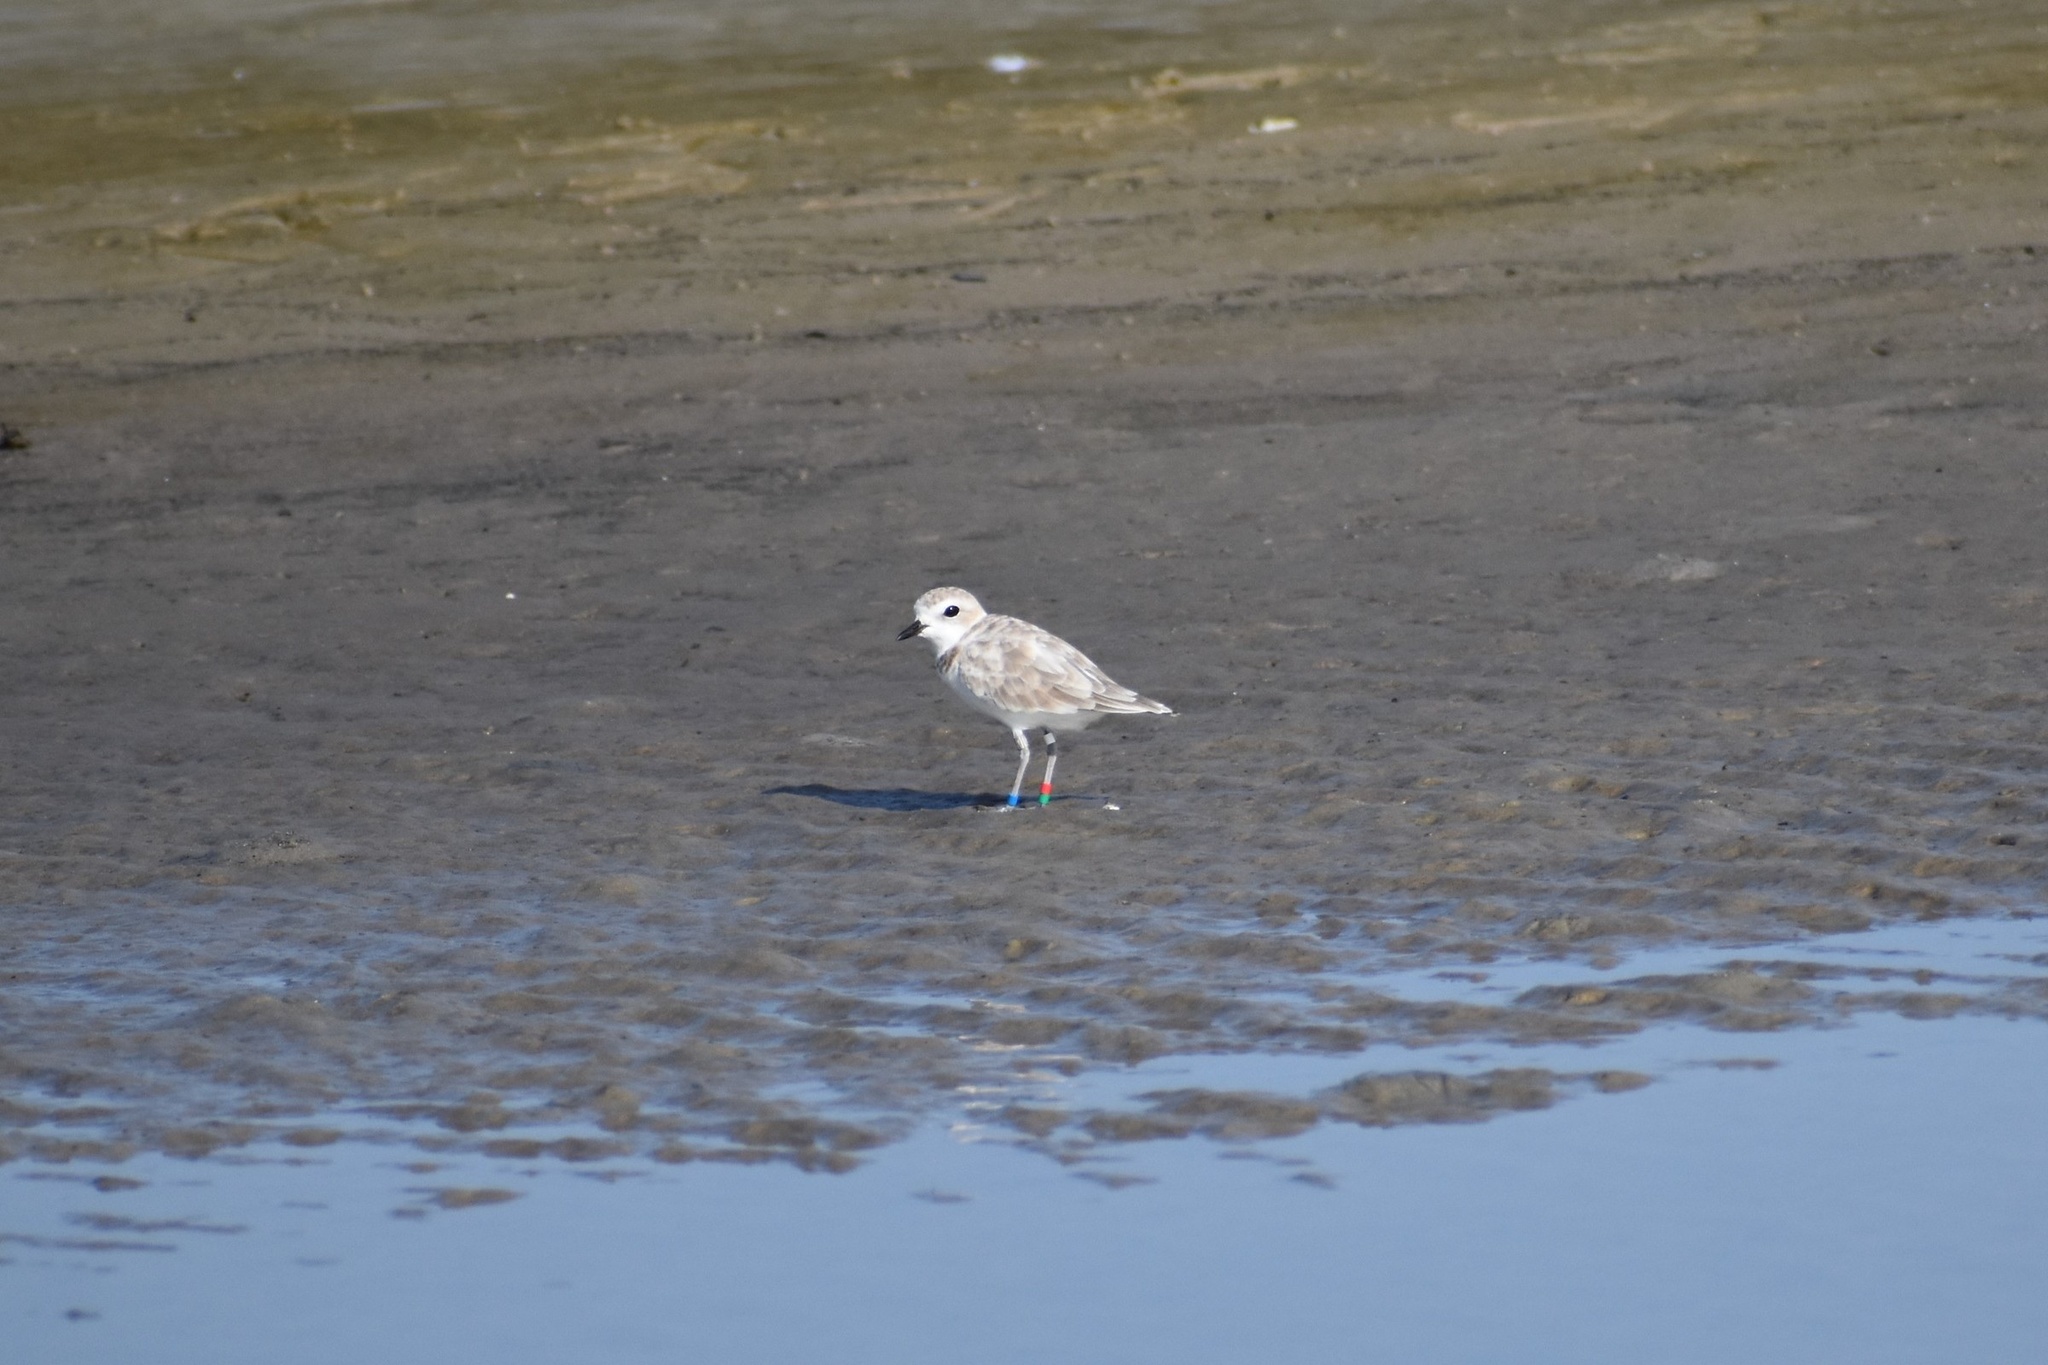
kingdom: Animalia
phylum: Chordata
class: Aves
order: Charadriiformes
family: Charadriidae
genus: Anarhynchus
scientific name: Anarhynchus
